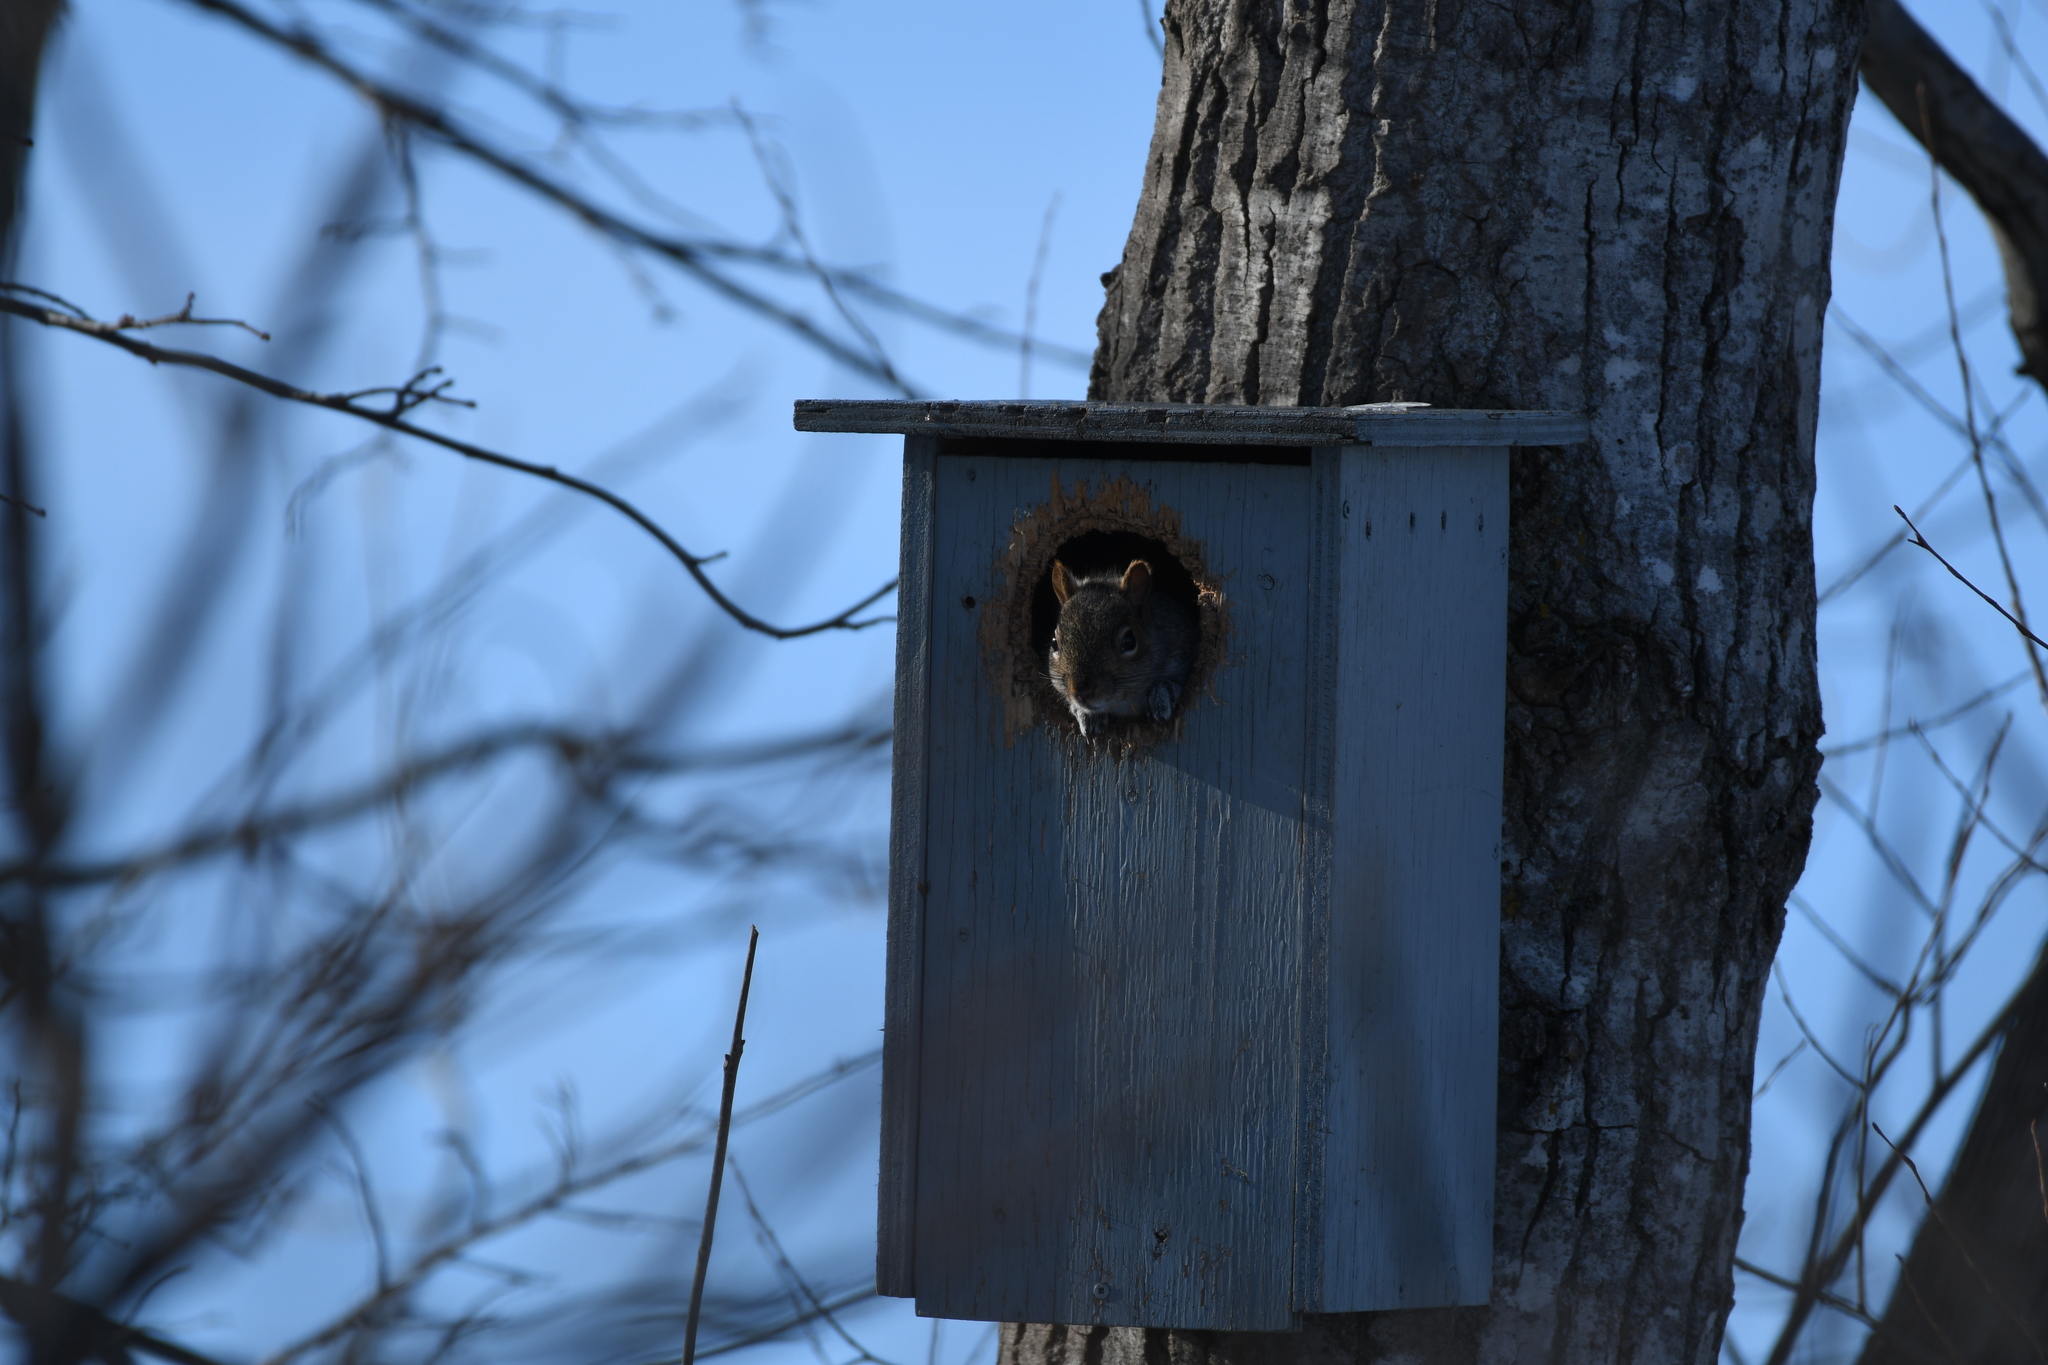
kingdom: Animalia
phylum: Chordata
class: Mammalia
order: Rodentia
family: Sciuridae
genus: Sciurus
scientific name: Sciurus carolinensis
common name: Eastern gray squirrel
